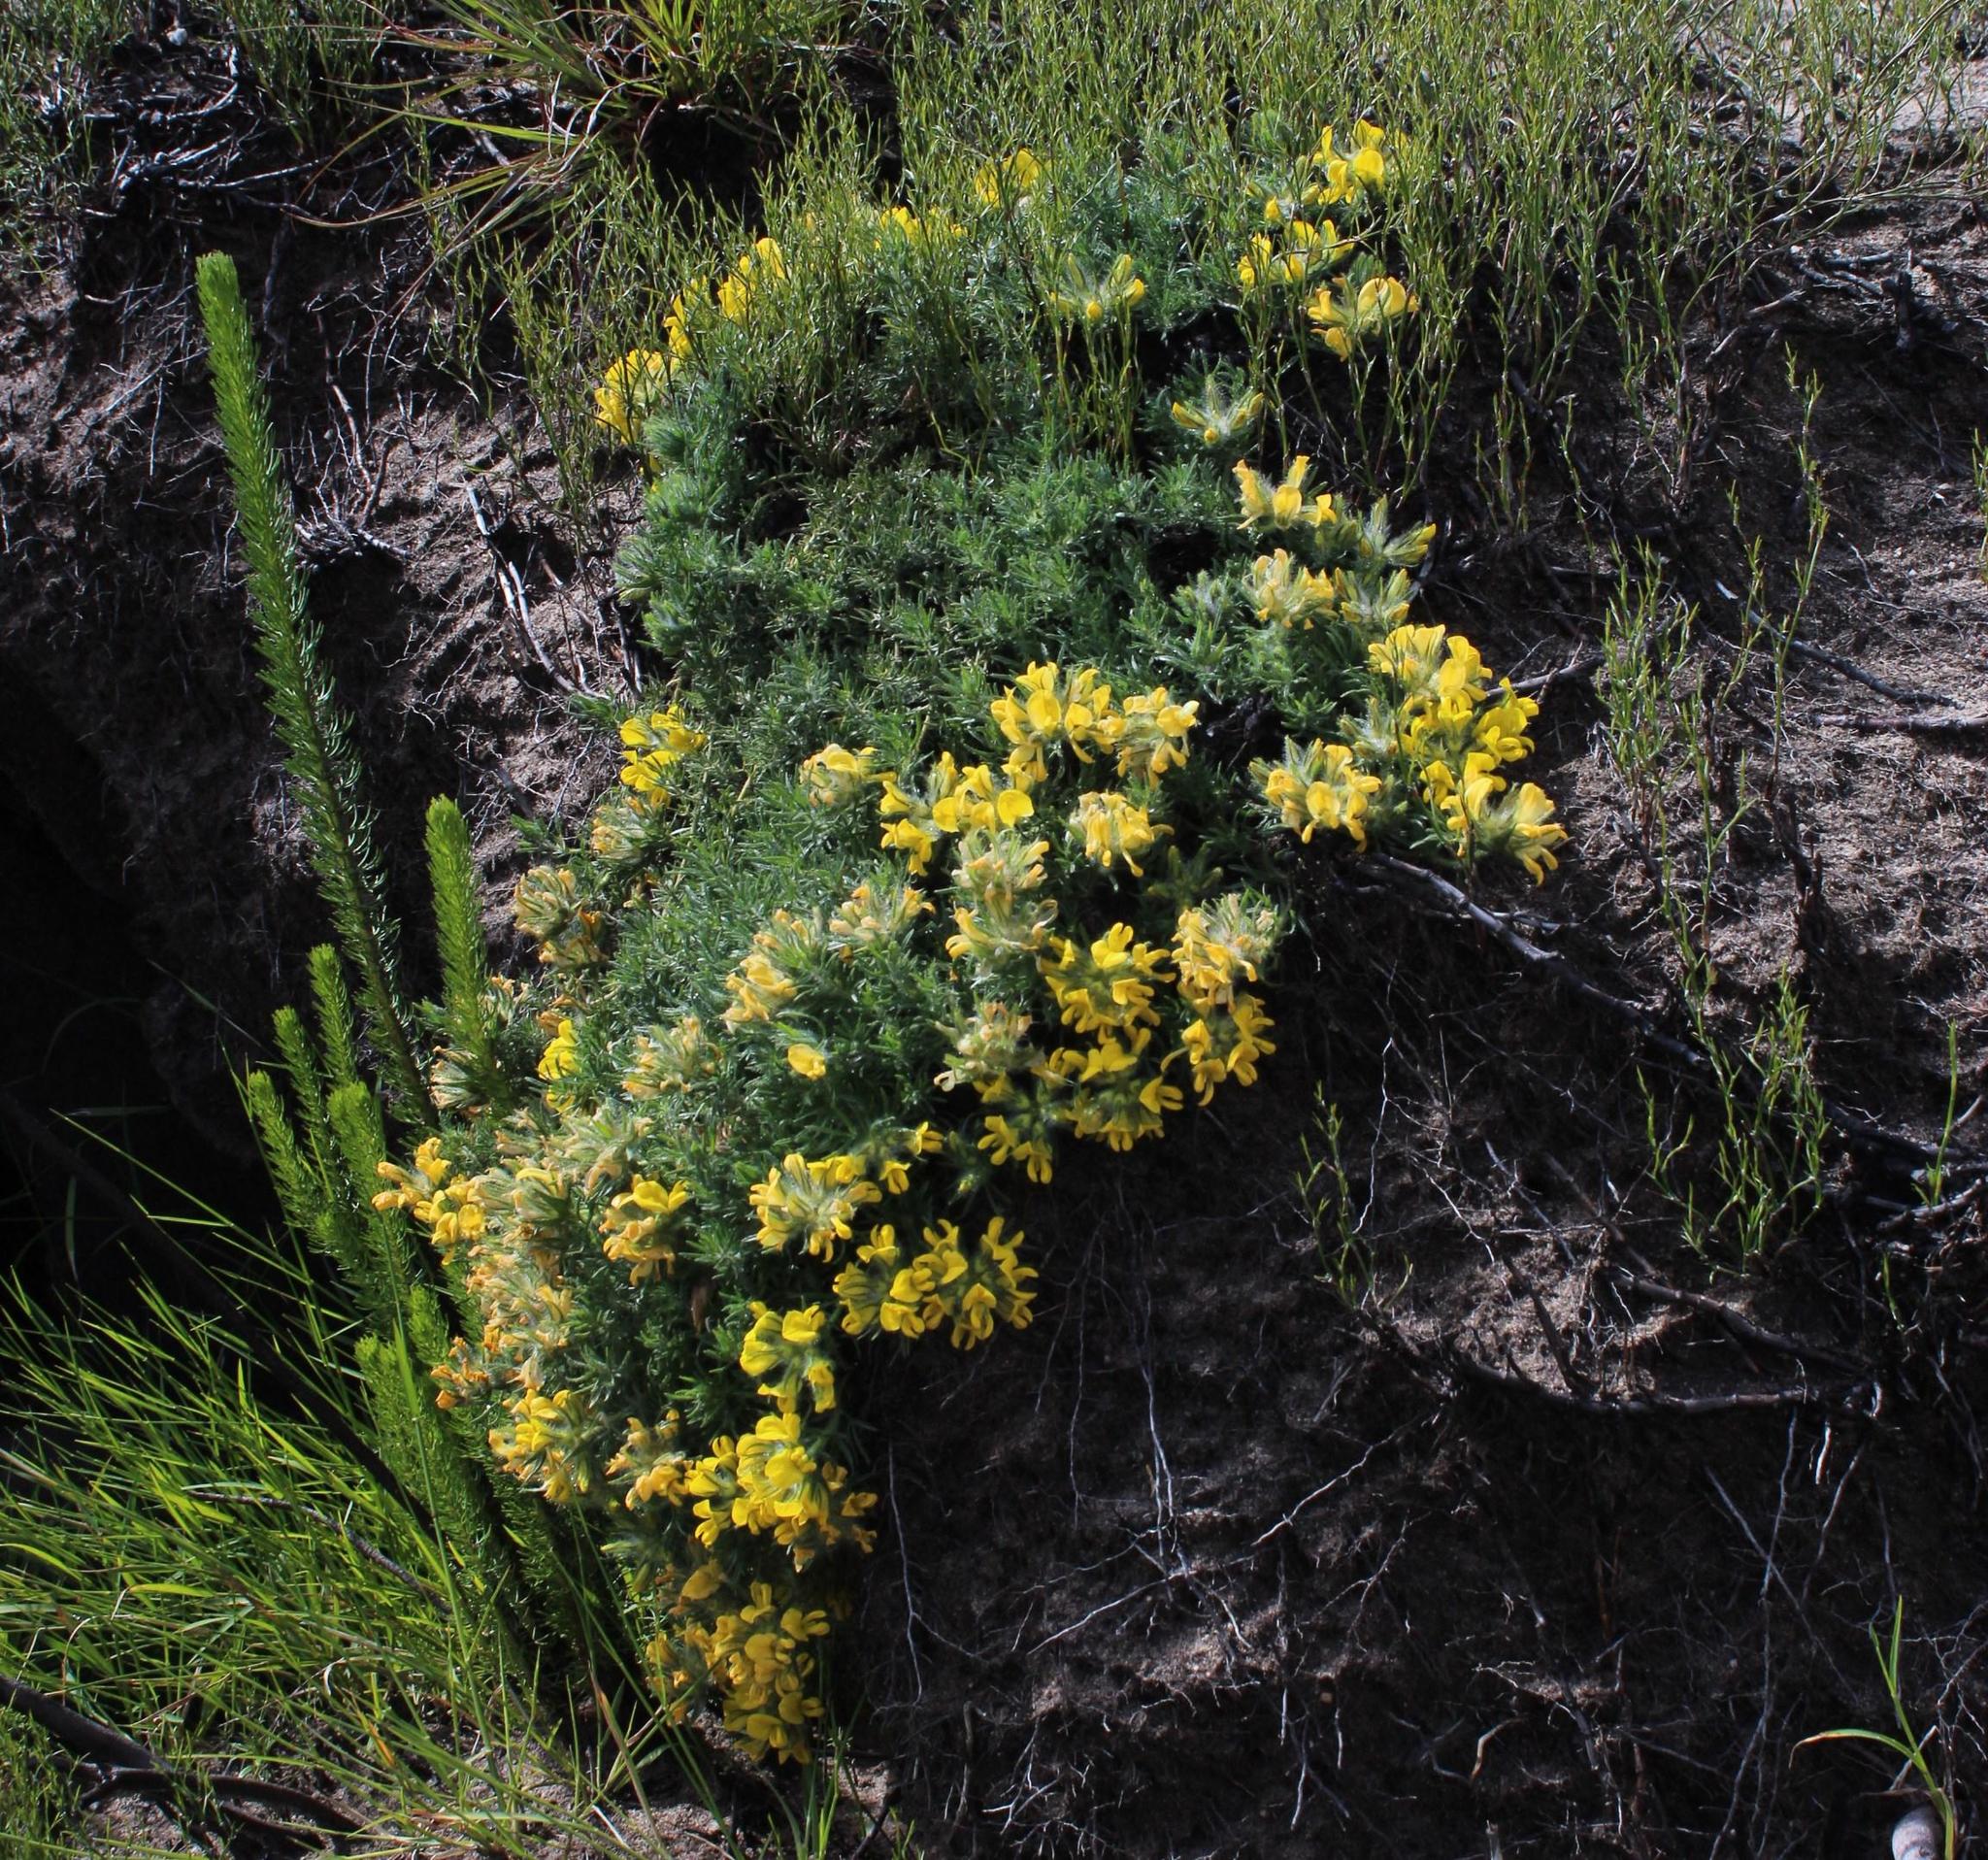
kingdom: Plantae
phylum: Tracheophyta
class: Magnoliopsida
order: Fabales
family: Fabaceae
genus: Lotononis
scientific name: Lotononis involucrata
